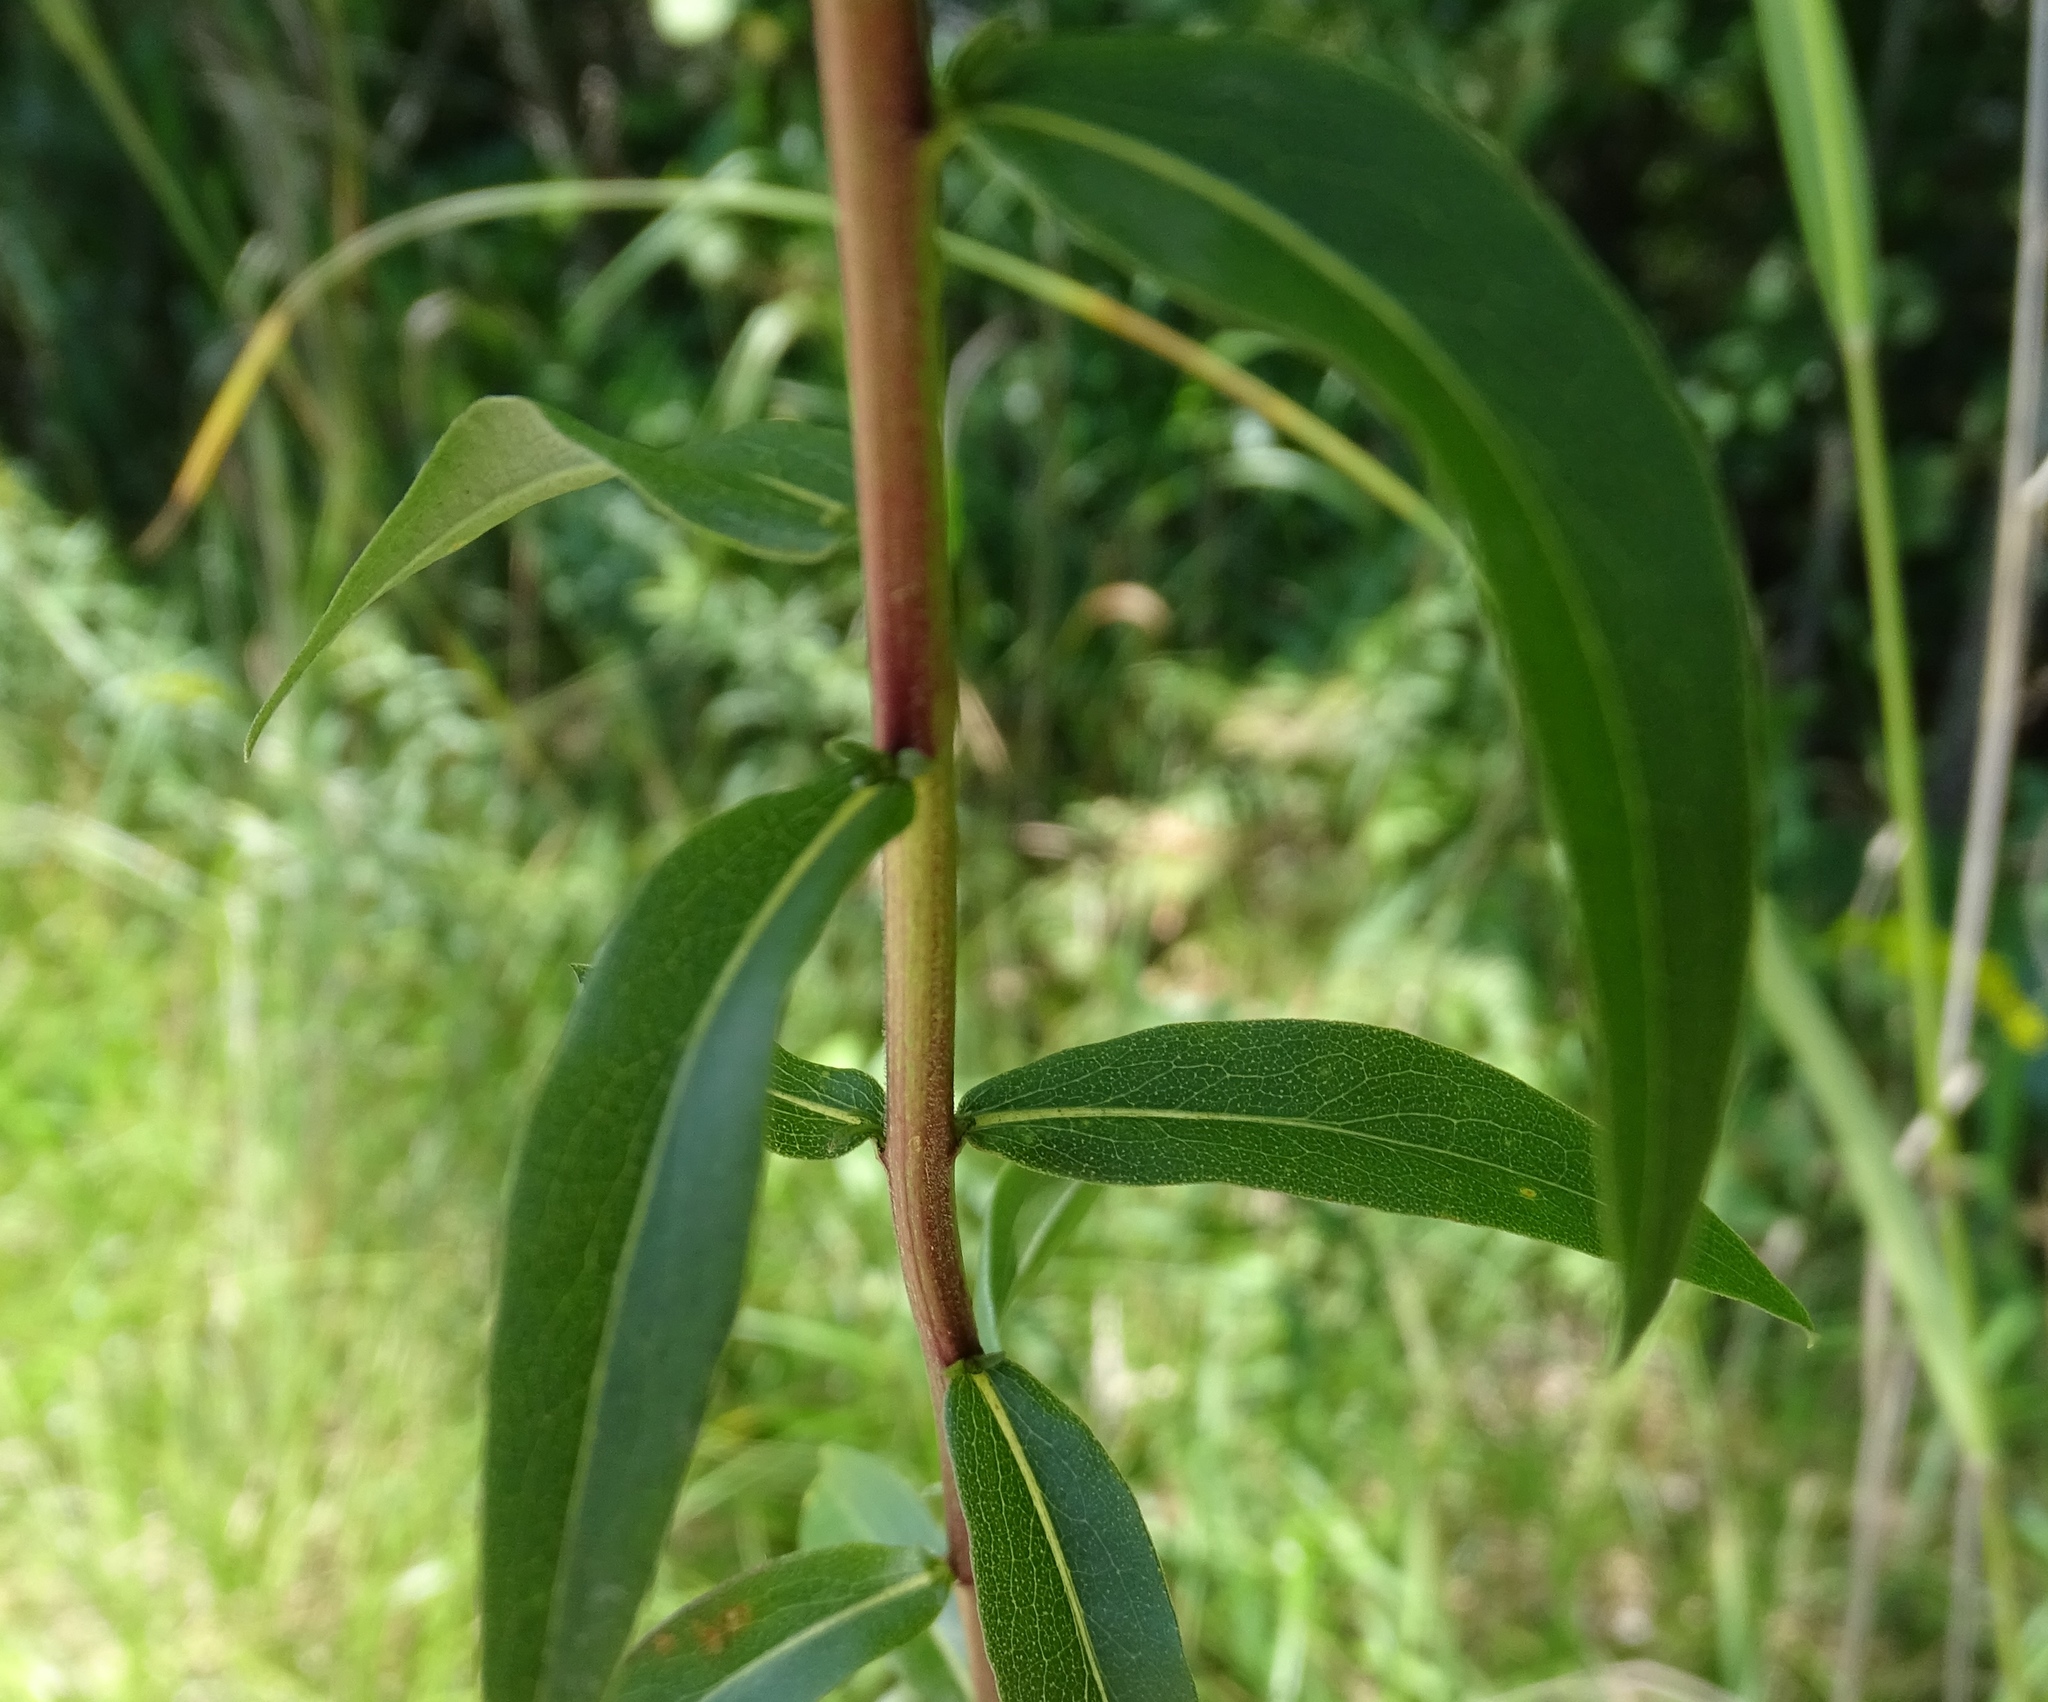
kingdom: Plantae
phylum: Tracheophyta
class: Magnoliopsida
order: Asterales
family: Asteraceae
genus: Solidago
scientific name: Solidago odora
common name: Anise-scented goldenrod
